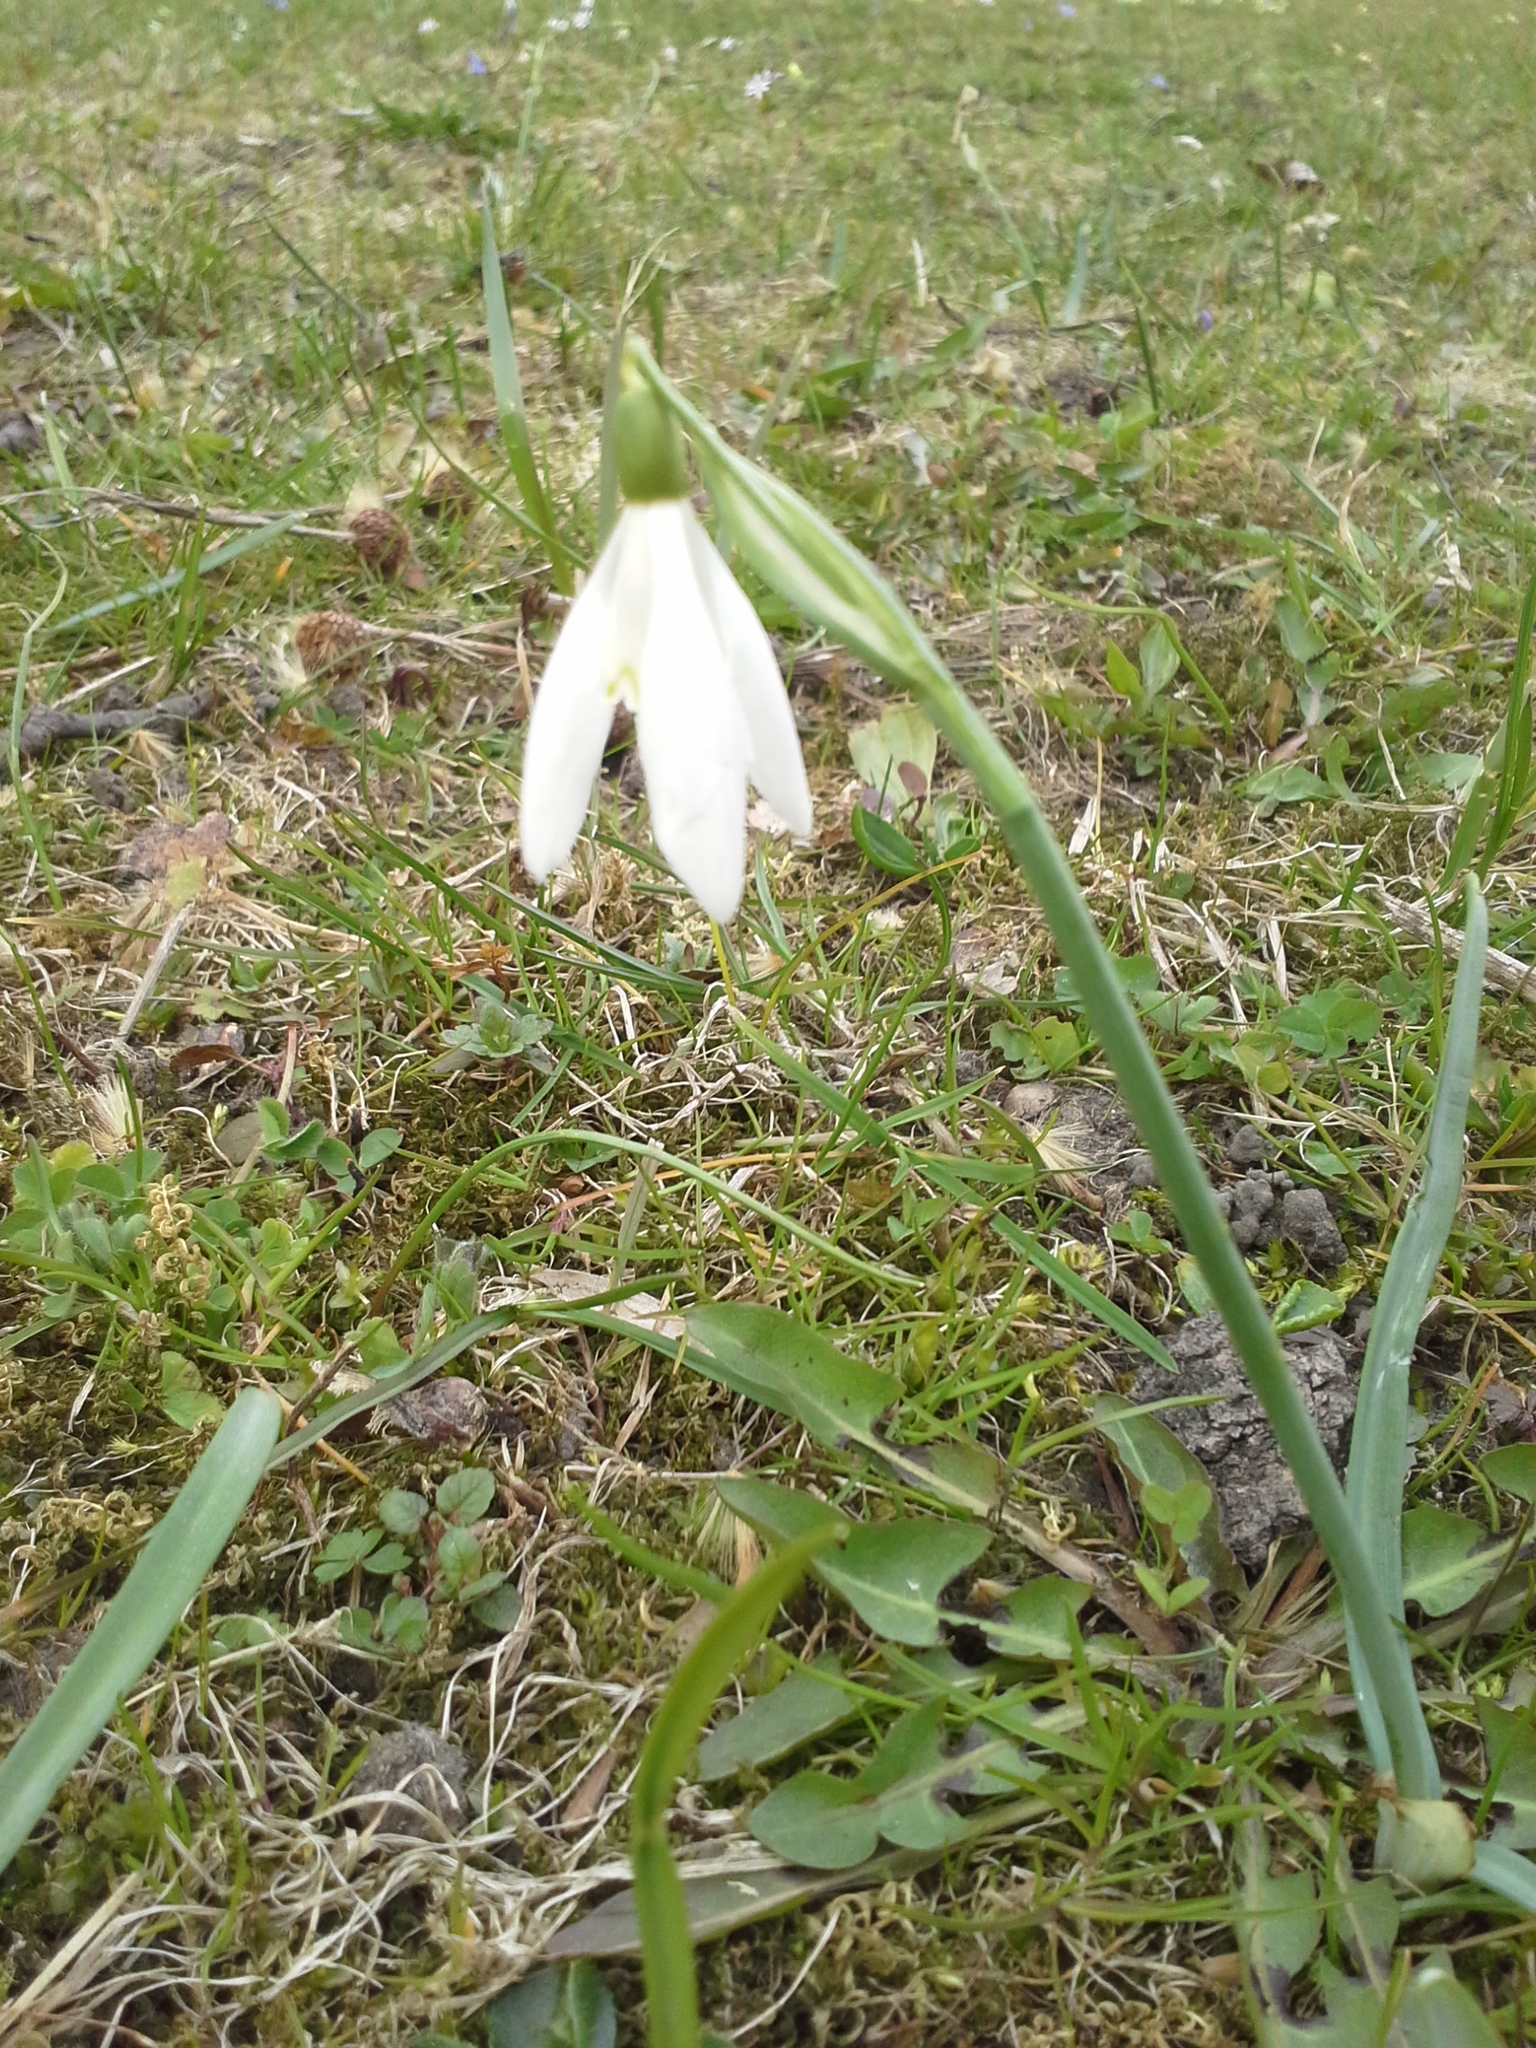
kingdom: Plantae
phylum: Tracheophyta
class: Liliopsida
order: Asparagales
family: Amaryllidaceae
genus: Galanthus
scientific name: Galanthus nivalis
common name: Snowdrop
